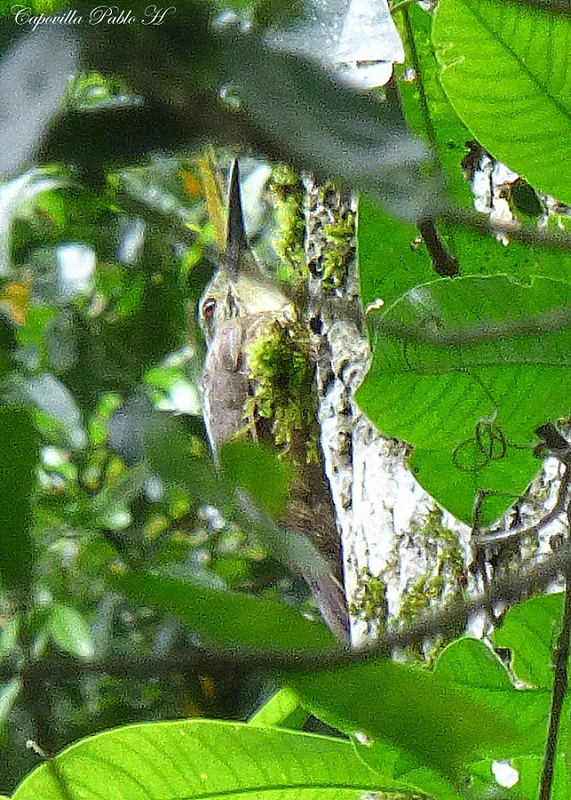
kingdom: Animalia
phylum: Chordata
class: Aves
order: Passeriformes
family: Furnariidae
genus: Xiphocolaptes
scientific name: Xiphocolaptes albicollis
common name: White-throated woodcreeper
